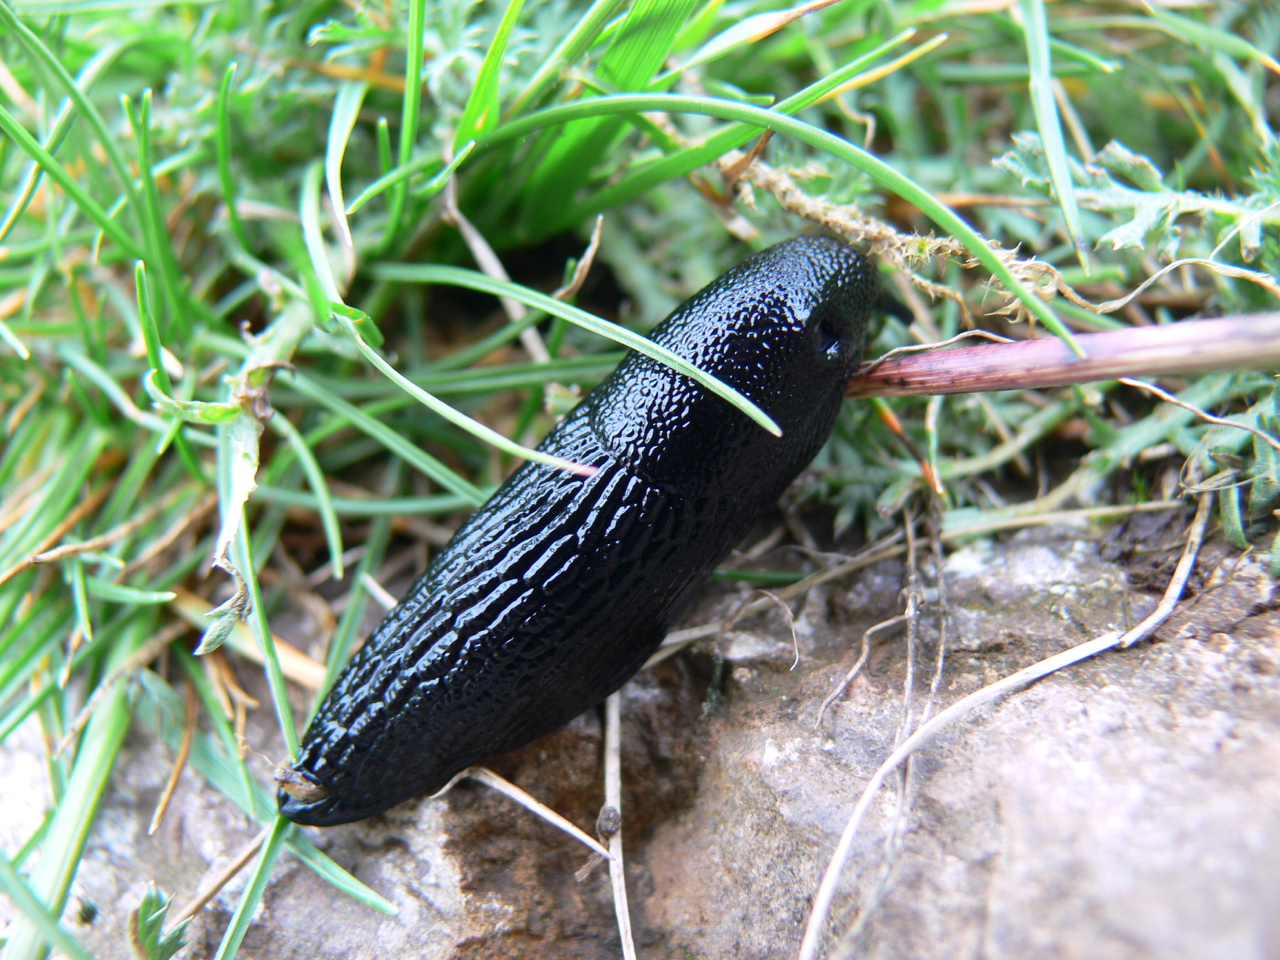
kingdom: Animalia
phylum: Mollusca
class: Gastropoda
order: Stylommatophora
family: Arionidae
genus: Arion
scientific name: Arion ater
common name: Black arion
